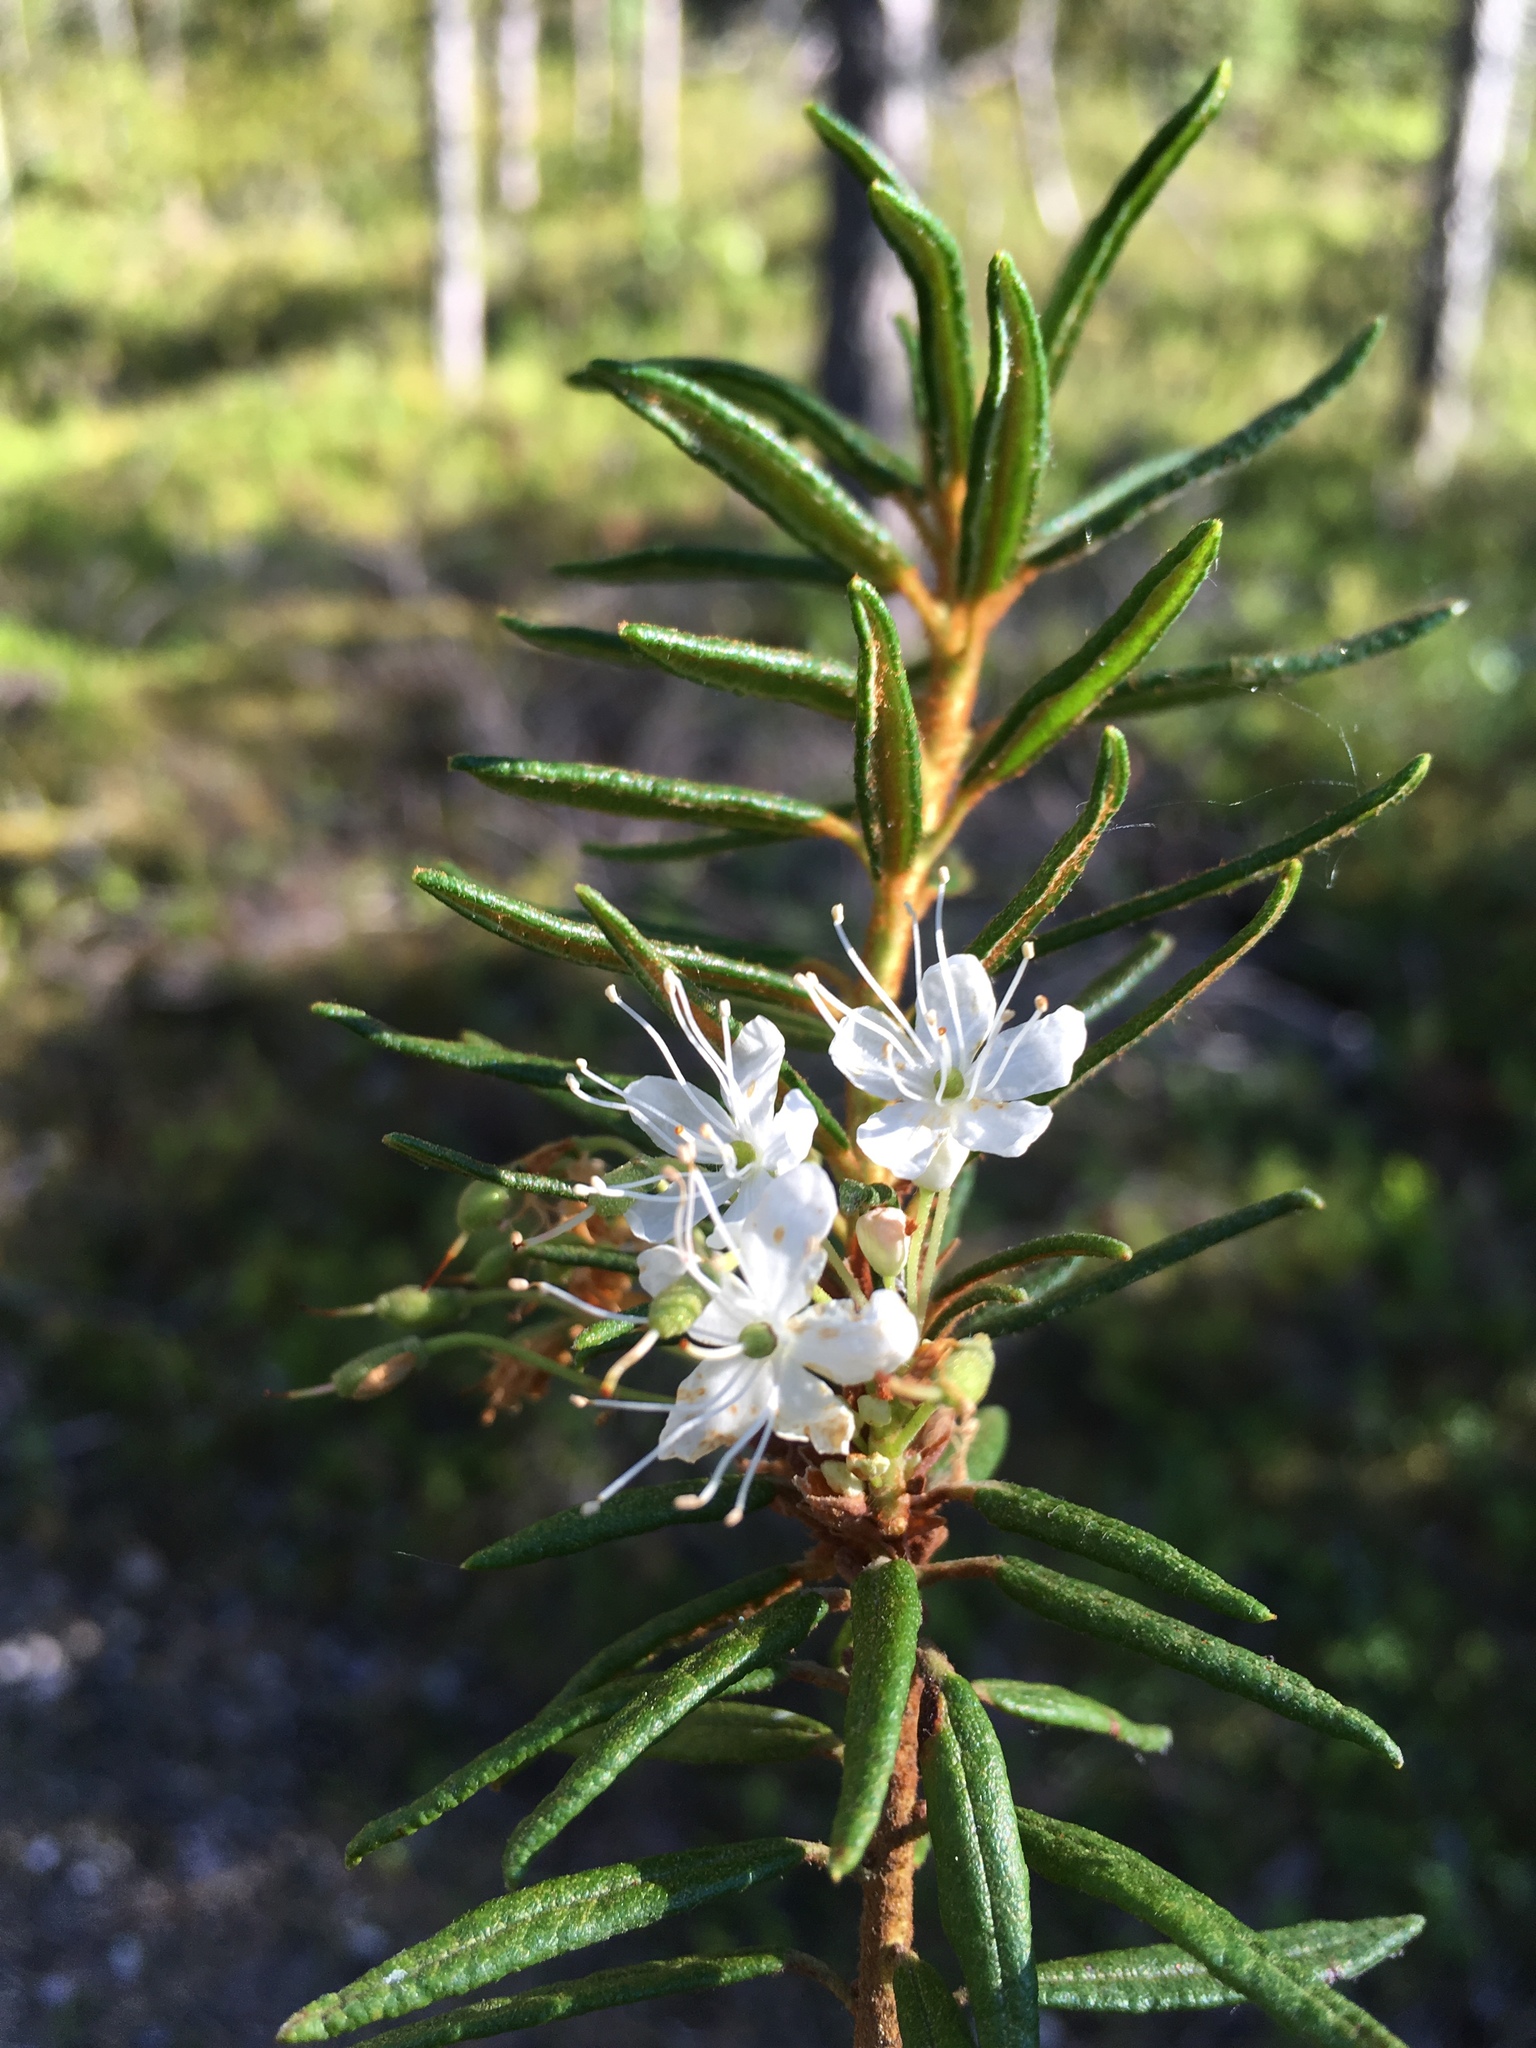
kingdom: Plantae
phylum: Tracheophyta
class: Magnoliopsida
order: Ericales
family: Ericaceae
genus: Rhododendron
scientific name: Rhododendron tomentosum
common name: Marsh labrador tea
